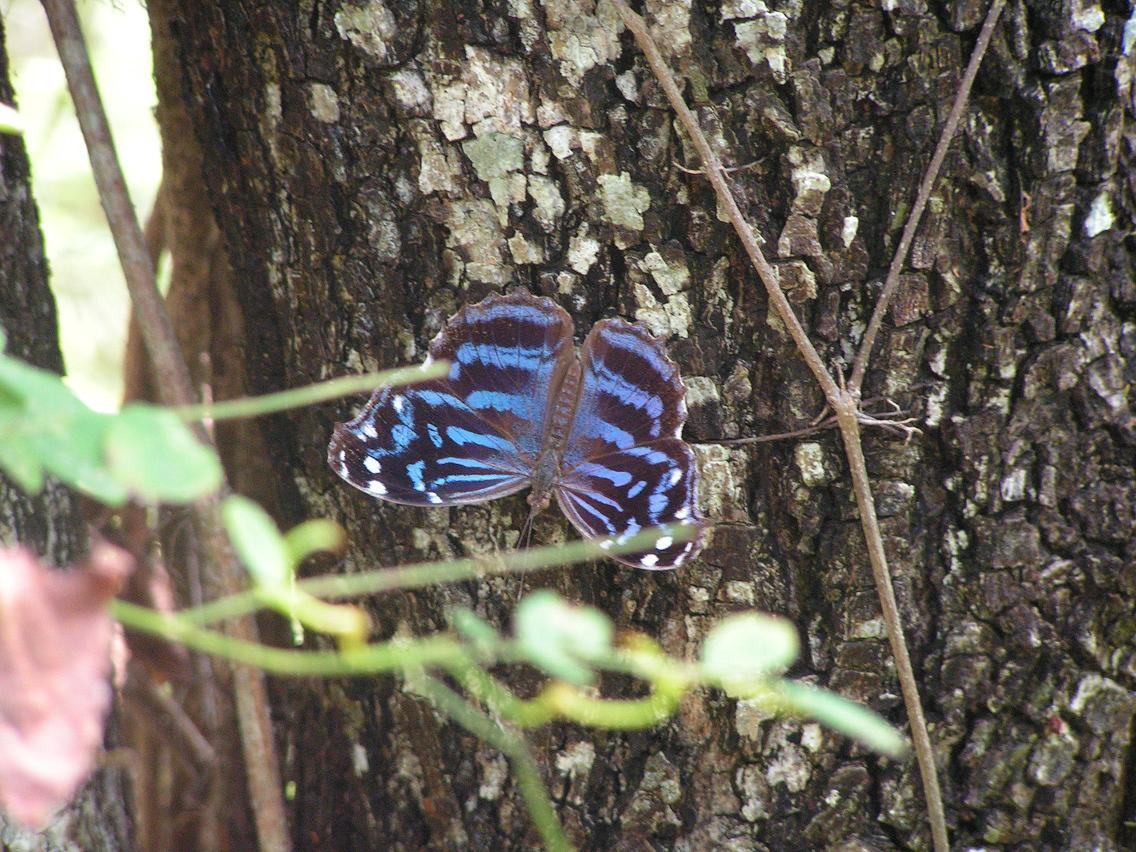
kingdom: Animalia
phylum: Arthropoda
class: Insecta
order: Lepidoptera
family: Nymphalidae
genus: Myscelia
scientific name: Myscelia ethusa
